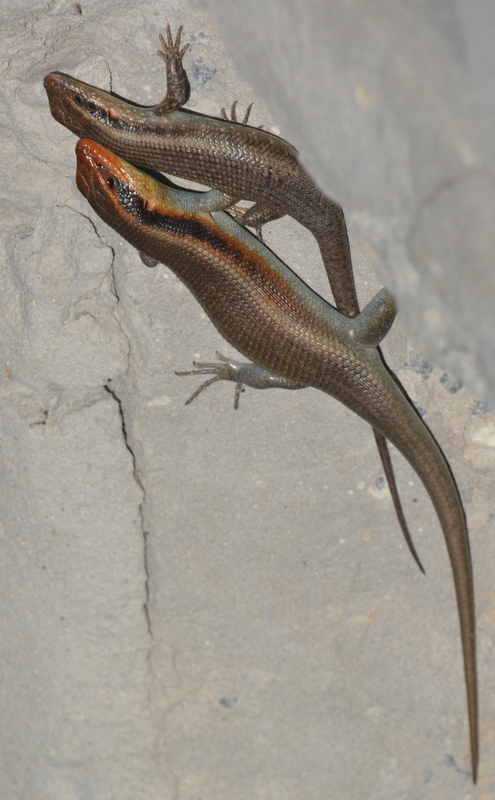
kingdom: Animalia
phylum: Chordata
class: Squamata
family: Scincidae
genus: Trachylepis
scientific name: Trachylepis wahlbergii
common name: Wahlberg’s striped skink
